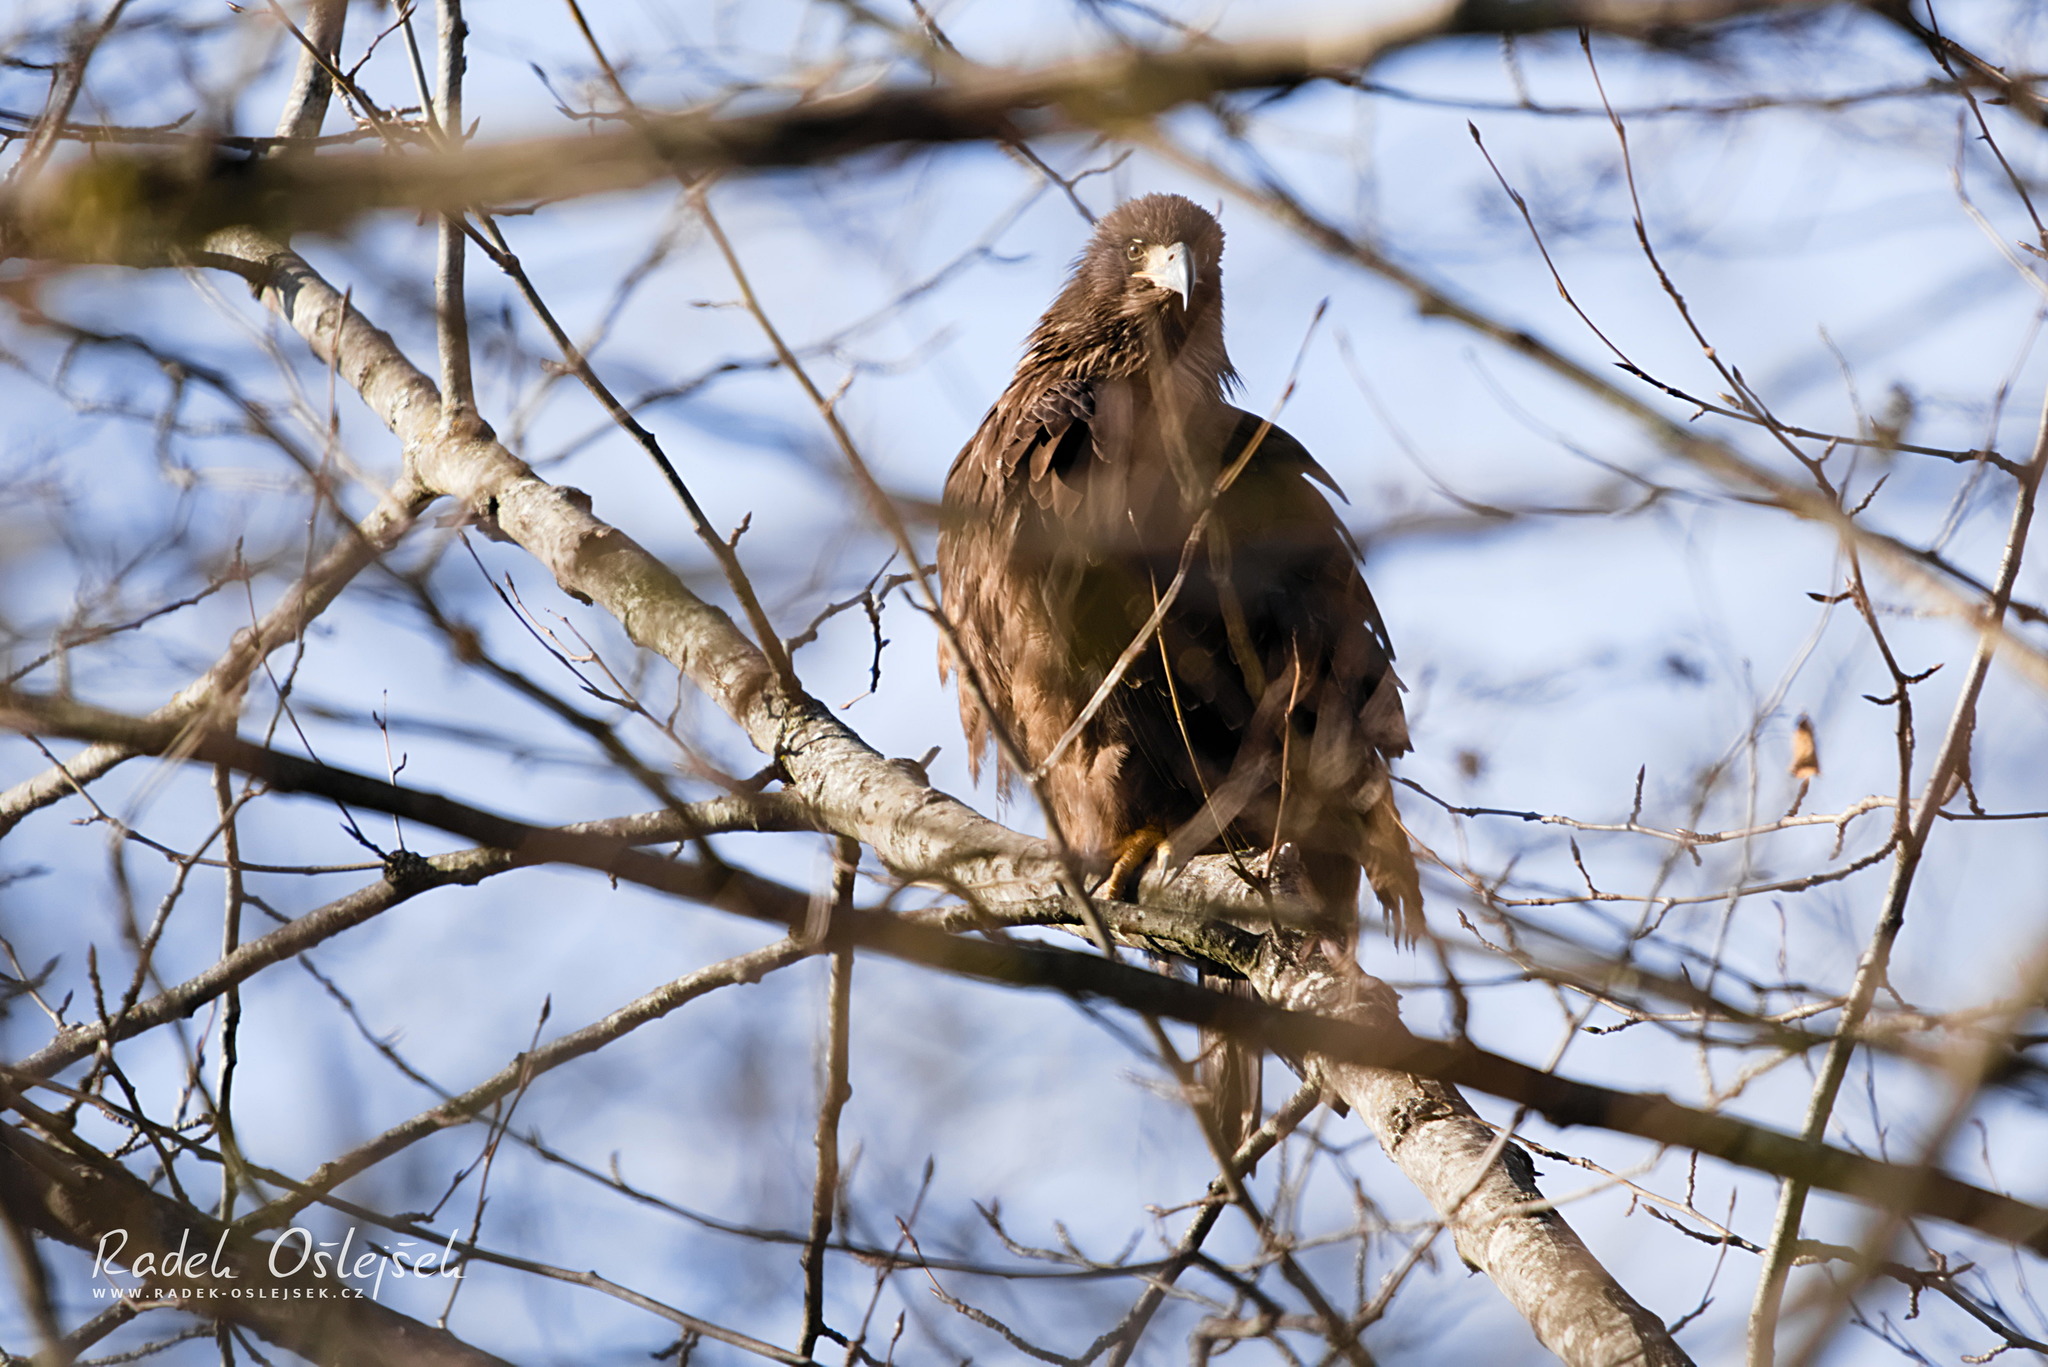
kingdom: Animalia
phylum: Chordata
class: Aves
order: Accipitriformes
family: Accipitridae
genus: Haliaeetus
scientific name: Haliaeetus leucocephalus
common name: Bald eagle
